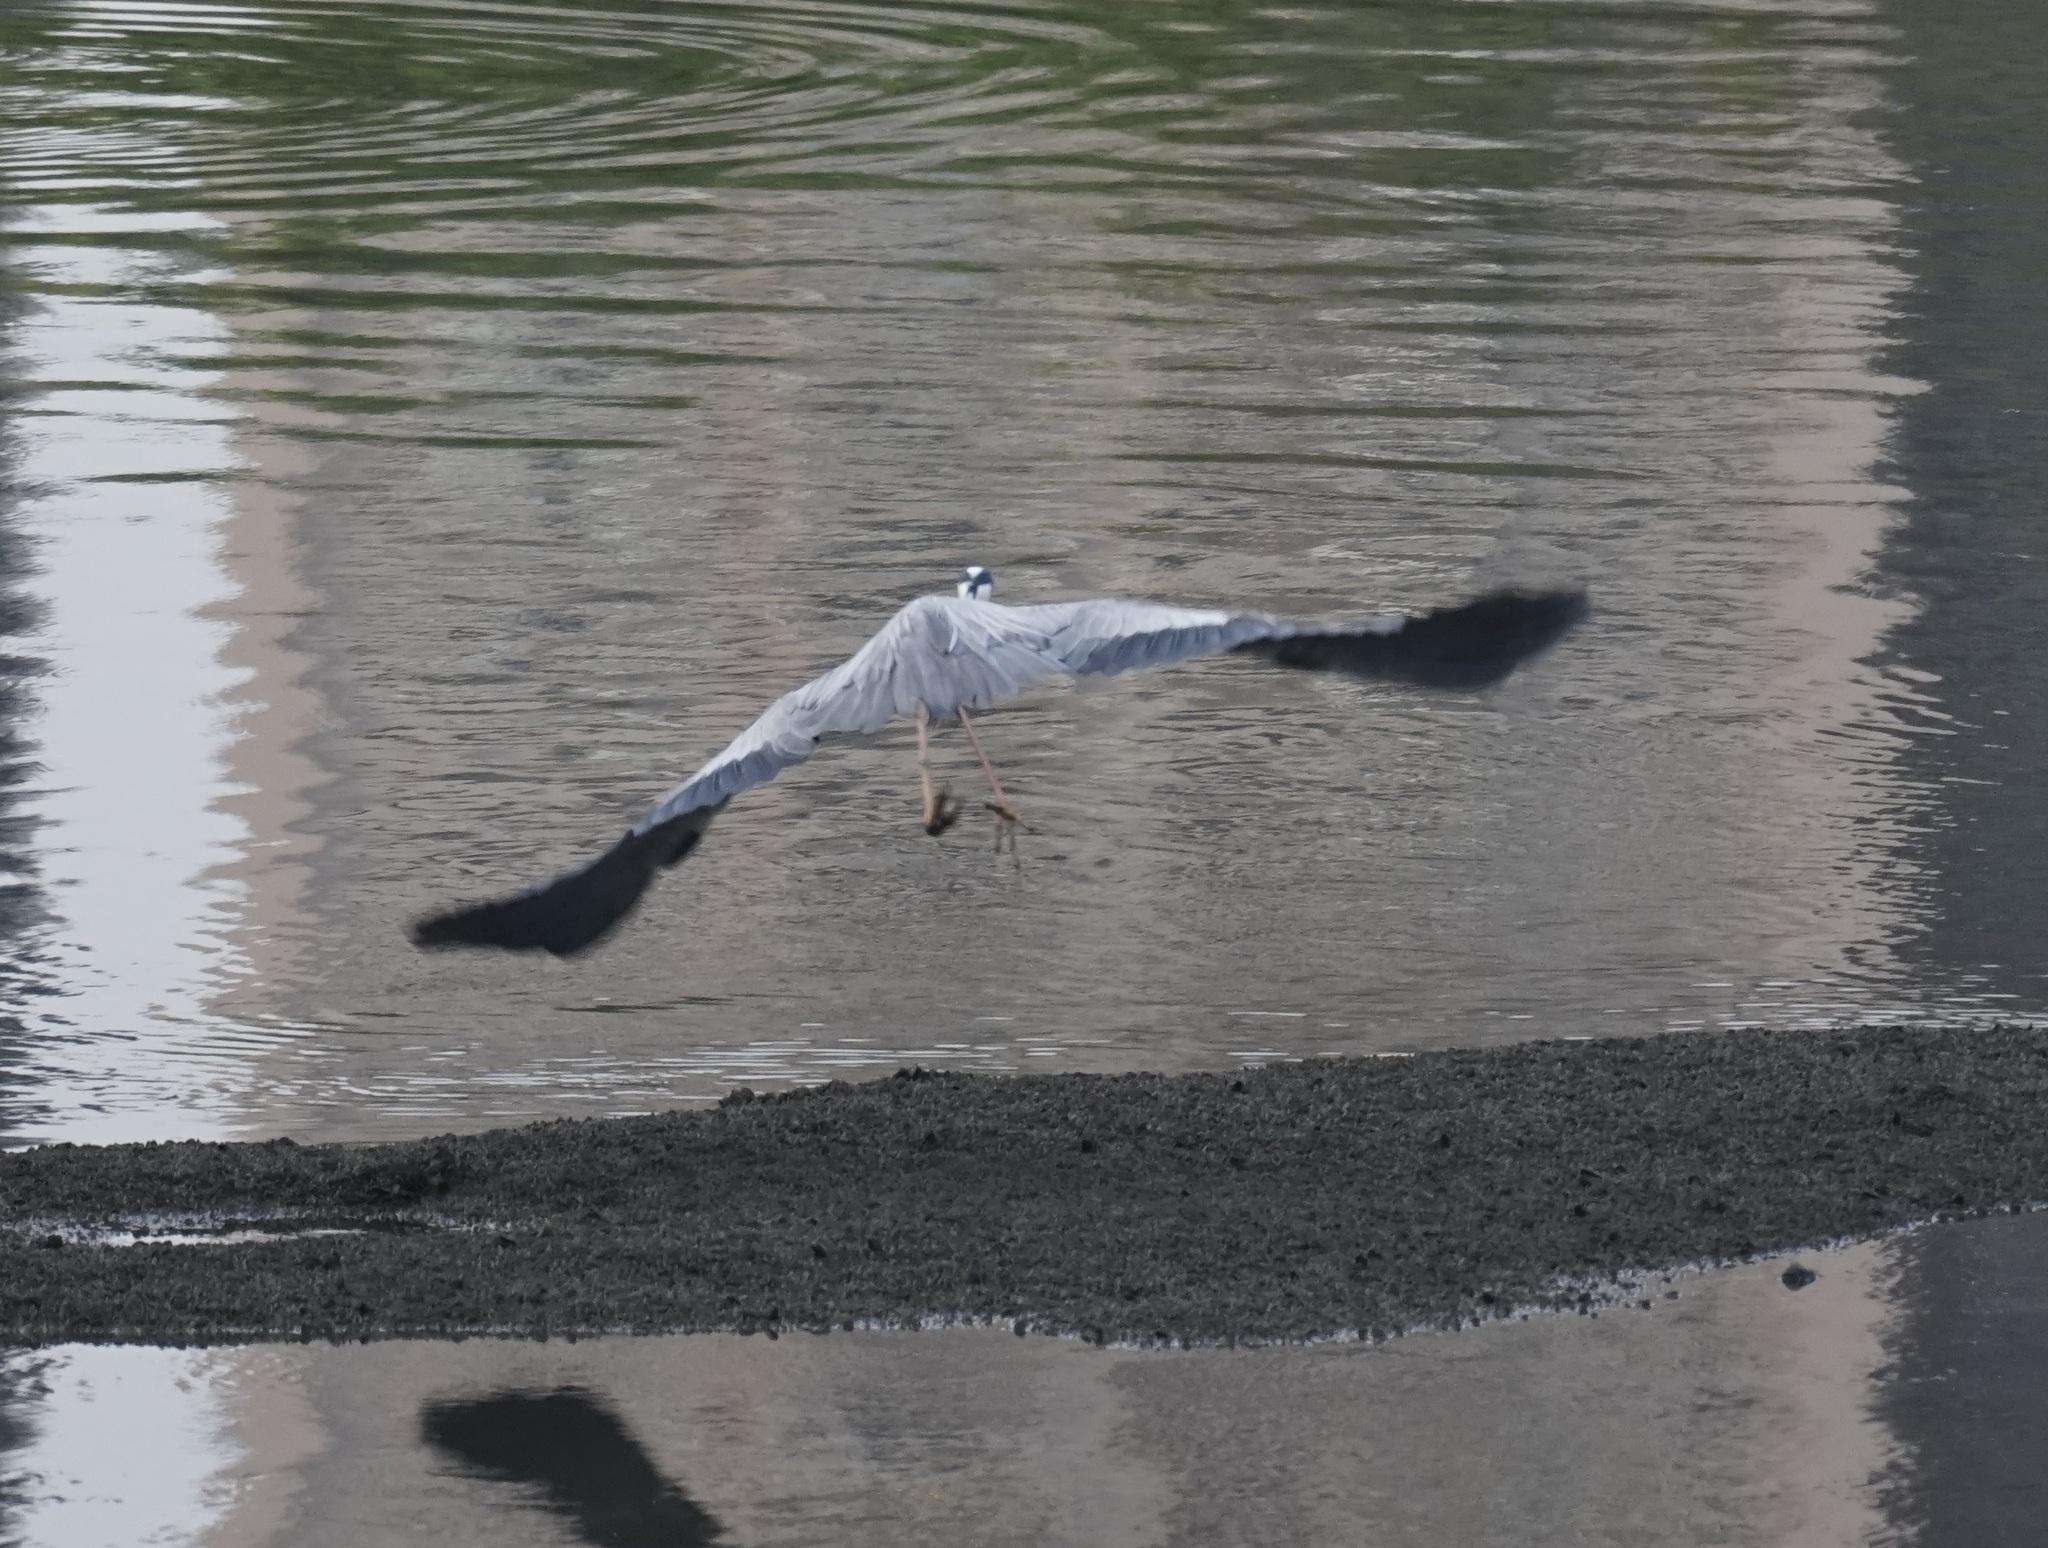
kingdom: Animalia
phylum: Chordata
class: Aves
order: Pelecaniformes
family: Ardeidae
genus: Ardea
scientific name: Ardea cinerea
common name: Grey heron
